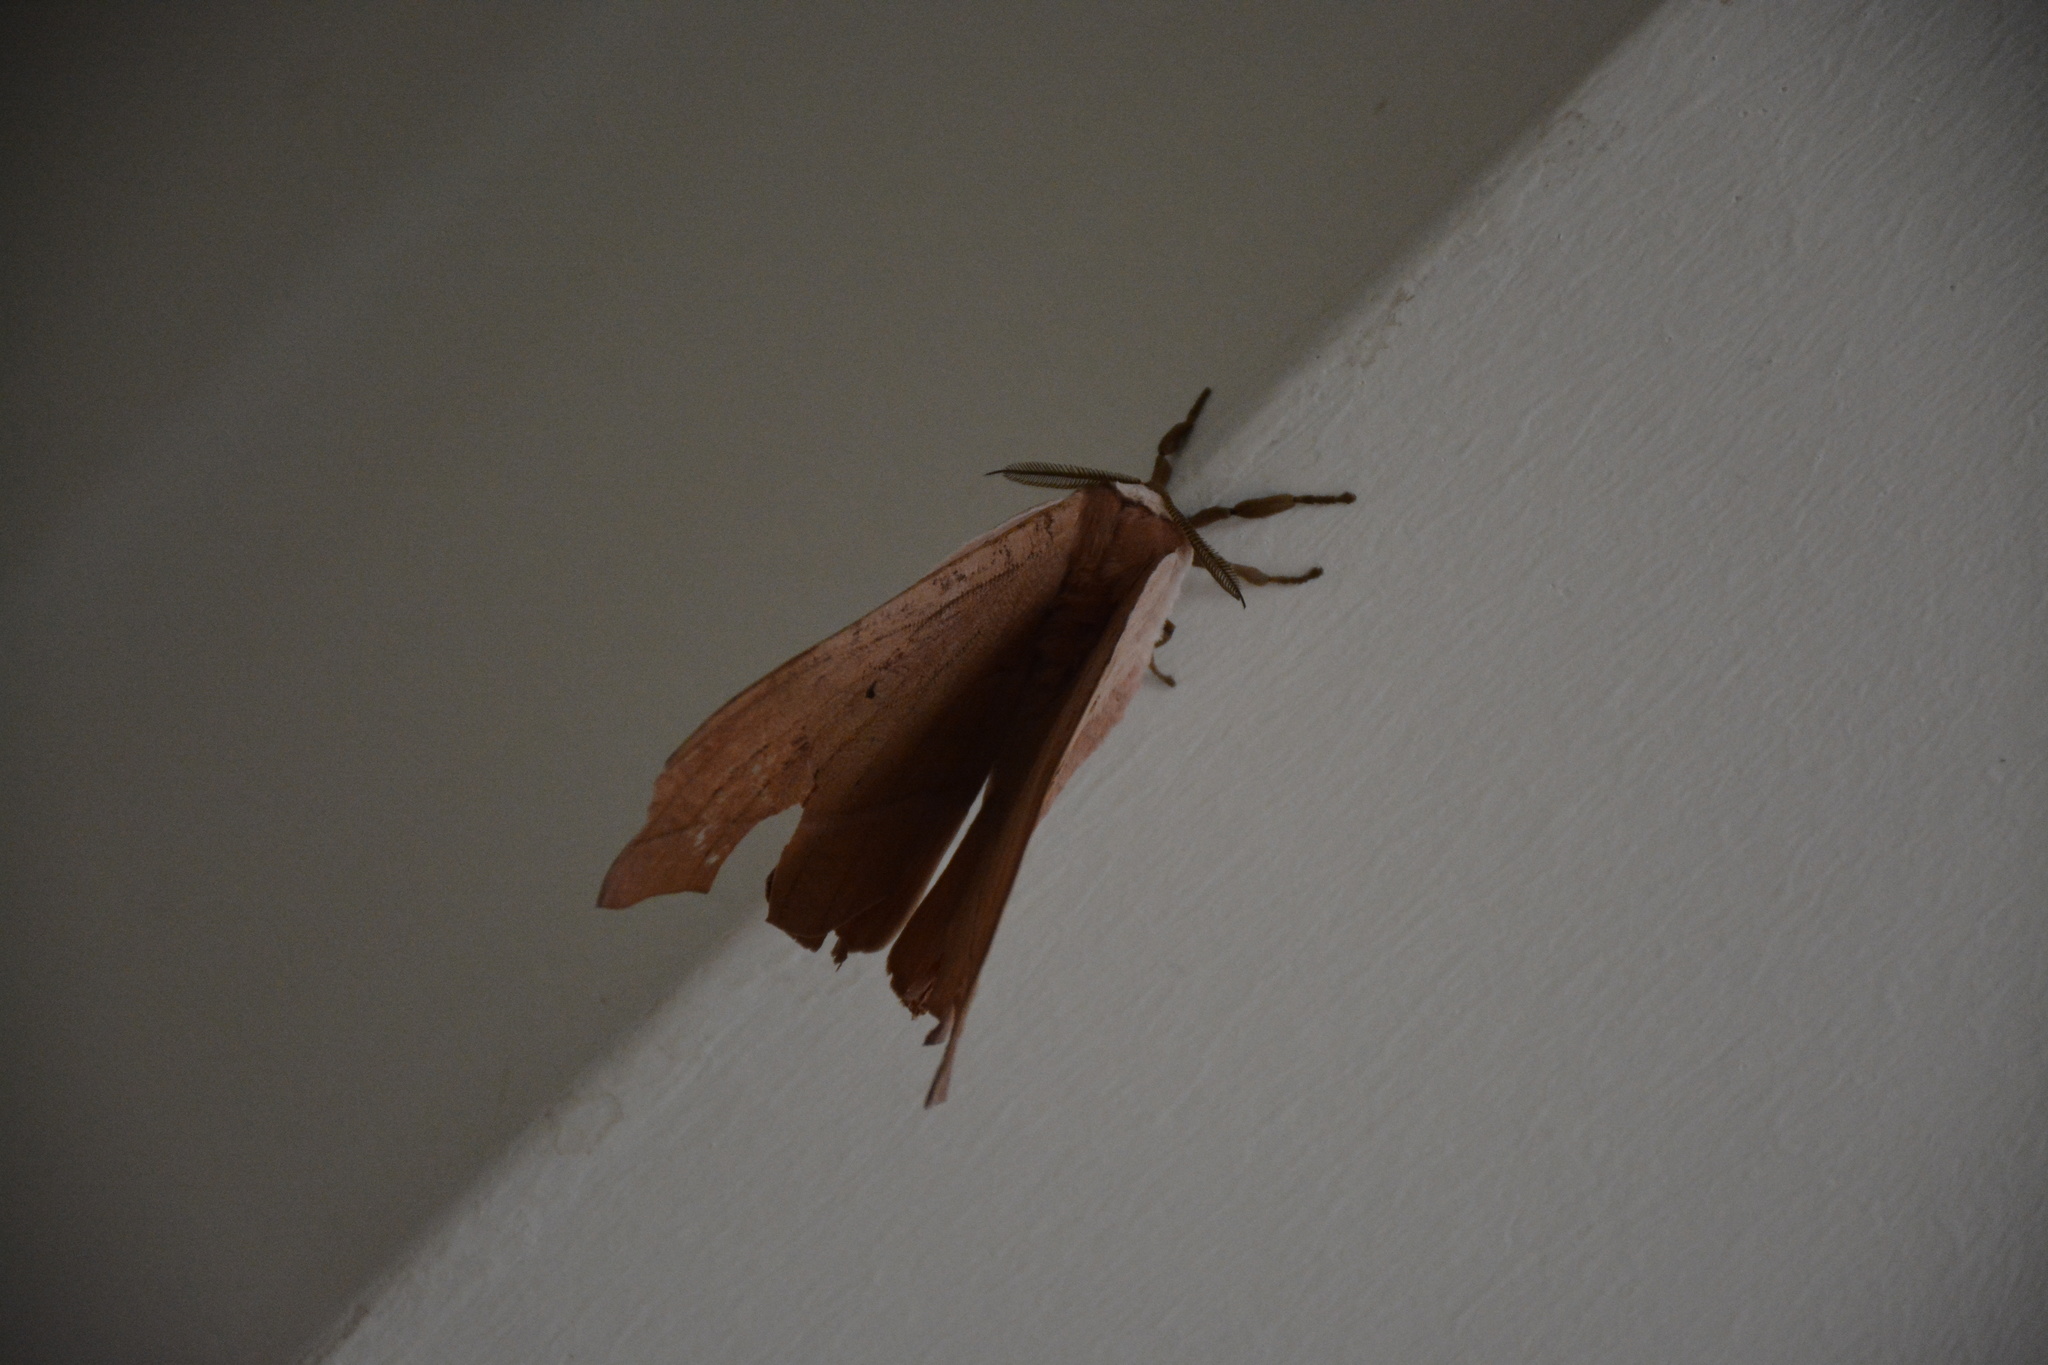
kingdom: Animalia
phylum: Chordata
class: Aves
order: Passeriformes
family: Ploceidae
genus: Anaplectes
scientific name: Anaplectes rubriceps
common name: Red-headed weaver
